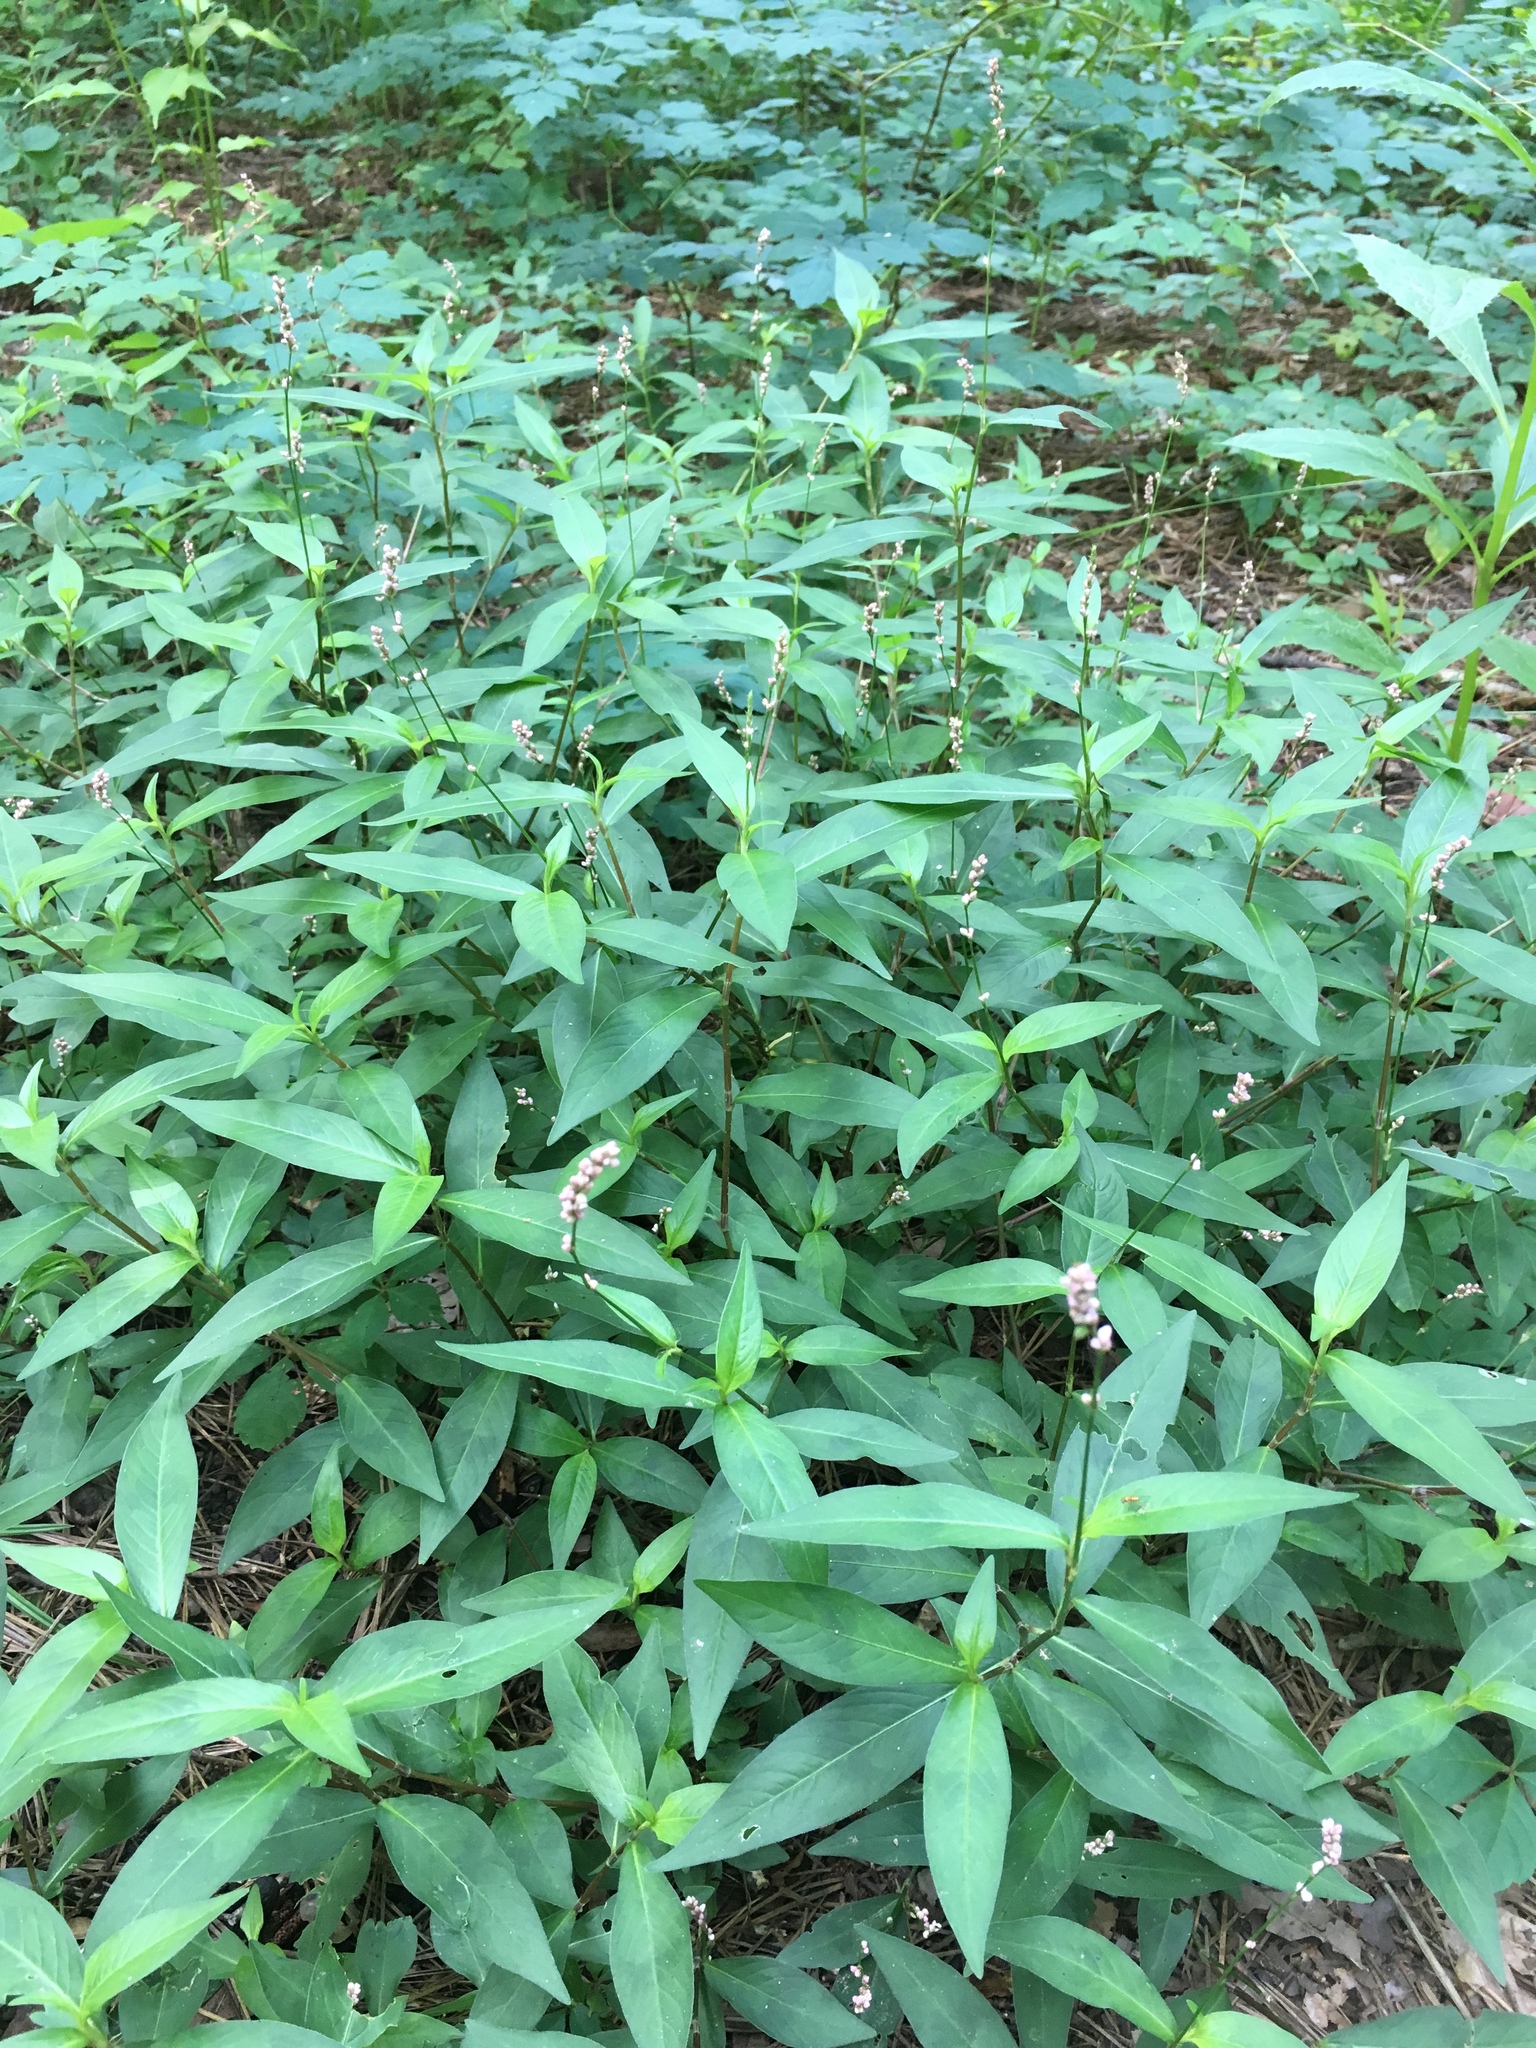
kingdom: Plantae
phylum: Tracheophyta
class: Magnoliopsida
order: Caryophyllales
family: Polygonaceae
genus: Persicaria
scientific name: Persicaria longiseta
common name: Bristly lady's-thumb
